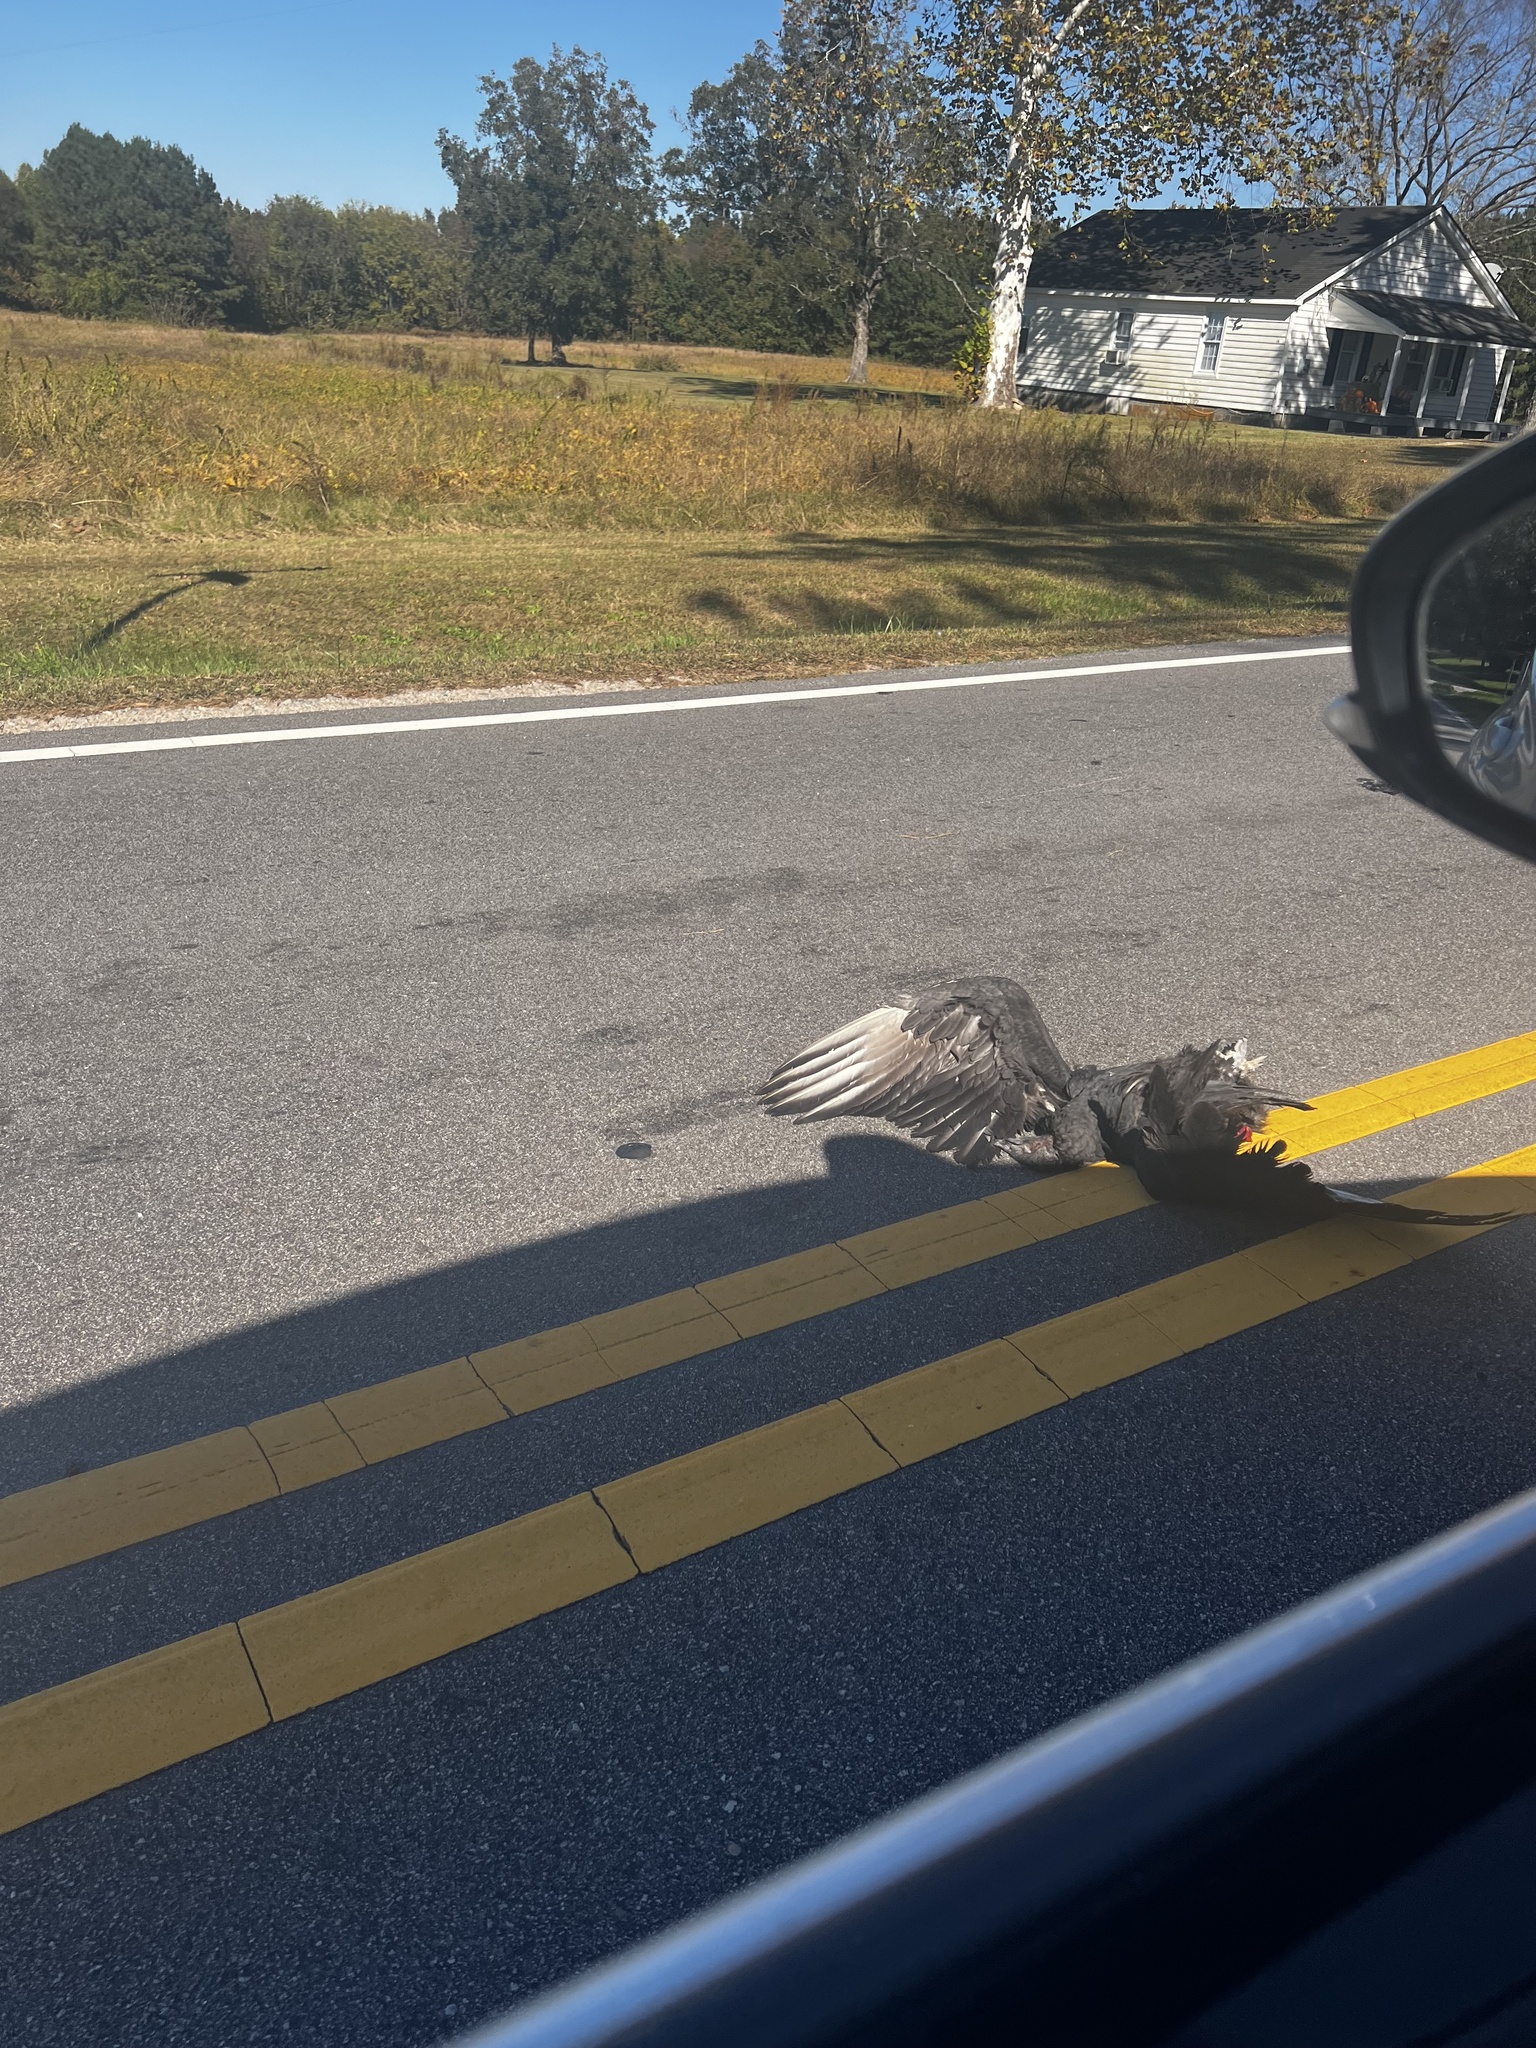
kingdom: Animalia
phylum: Chordata
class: Aves
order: Accipitriformes
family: Cathartidae
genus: Coragyps
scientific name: Coragyps atratus
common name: Black vulture
